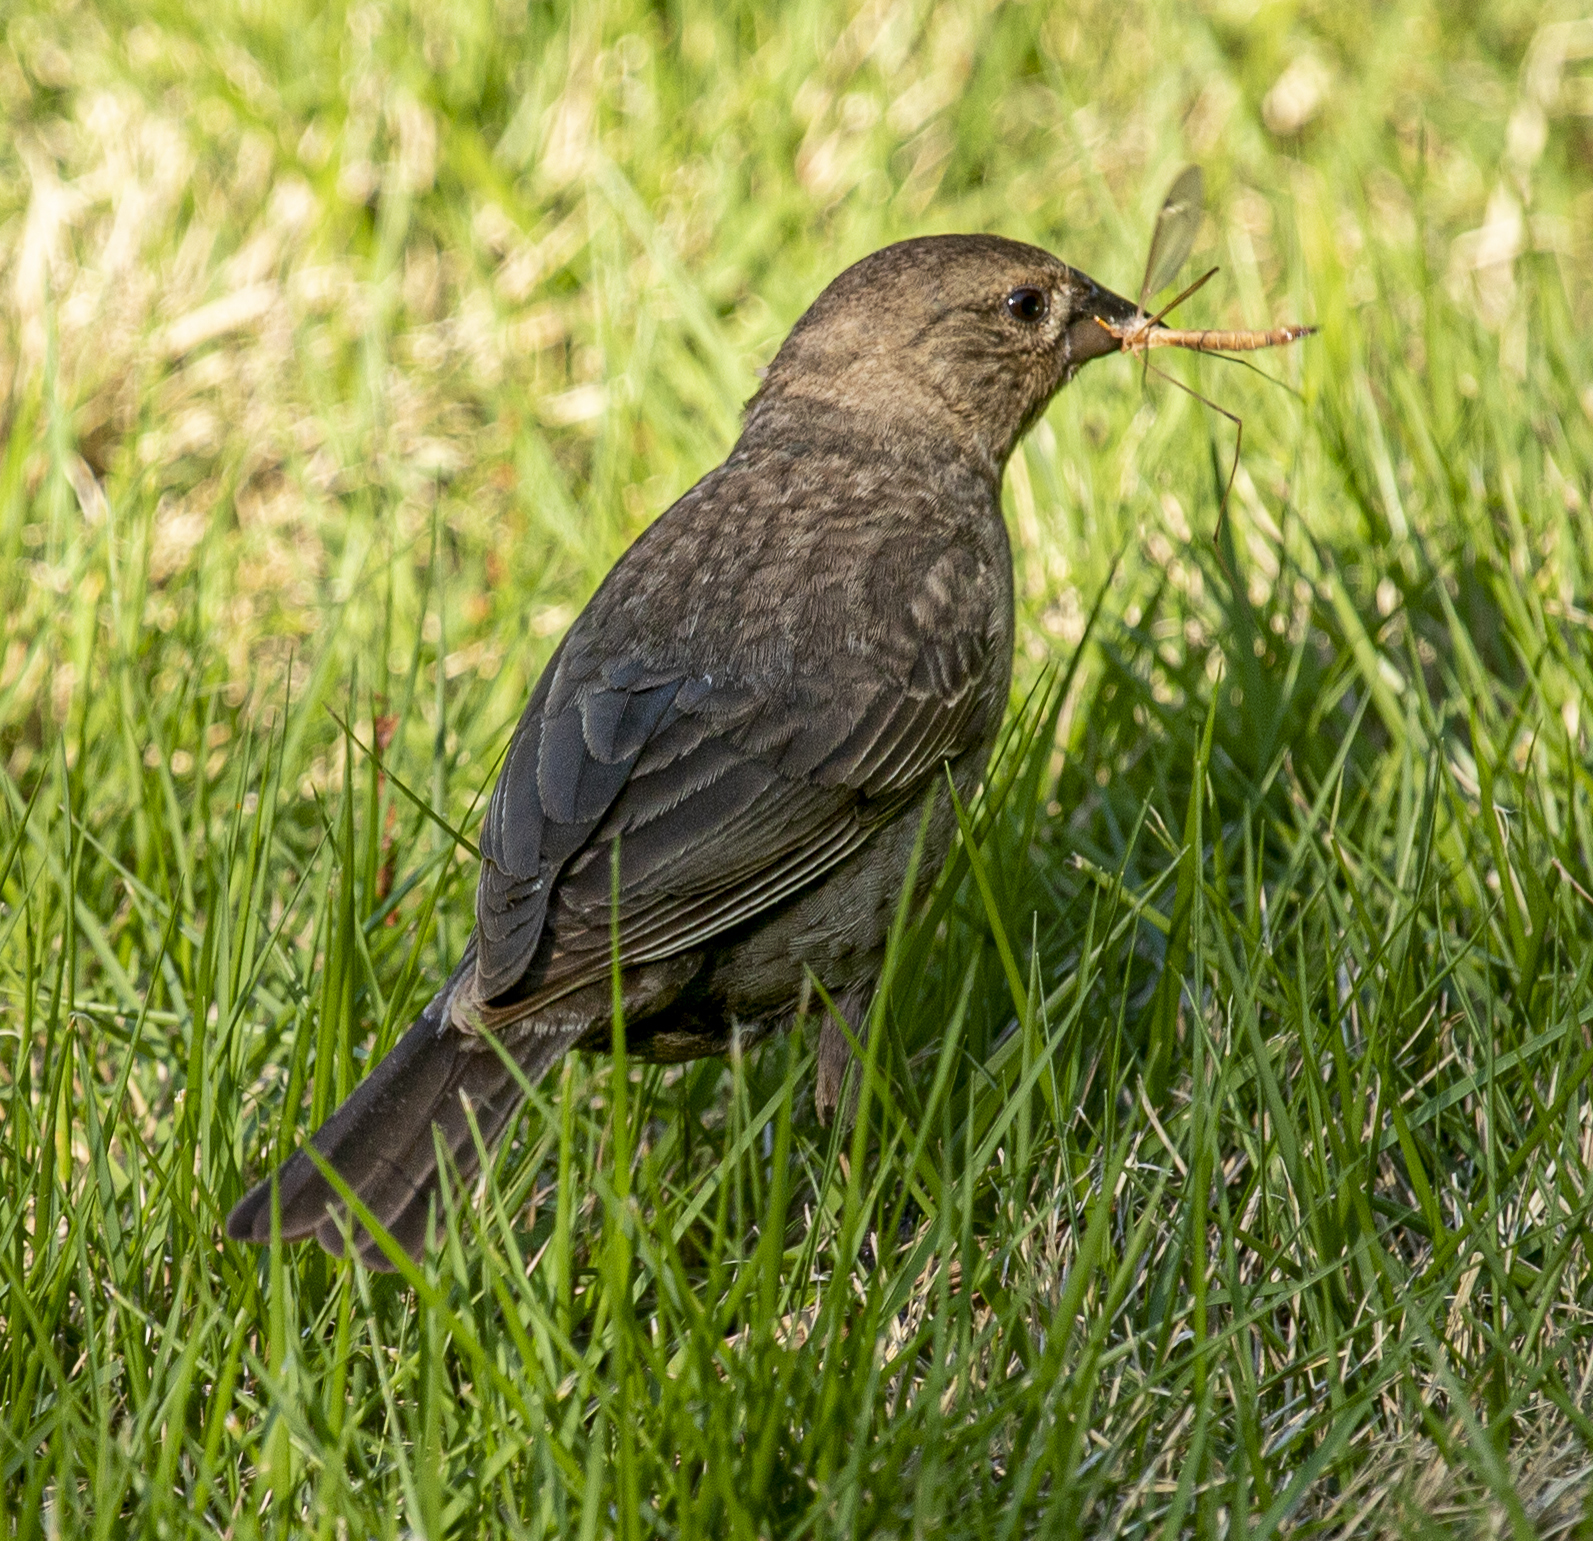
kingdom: Animalia
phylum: Chordata
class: Aves
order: Passeriformes
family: Icteridae
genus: Molothrus
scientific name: Molothrus ater
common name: Brown-headed cowbird
